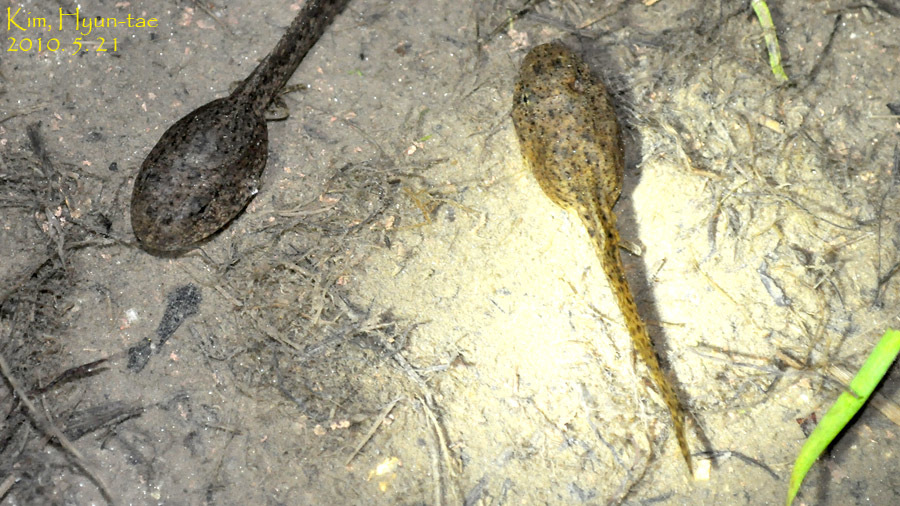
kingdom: Animalia
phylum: Chordata
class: Amphibia
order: Anura
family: Ranidae
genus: Glandirana
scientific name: Glandirana emeljanovi
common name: Northeast china rough-skinned frog
